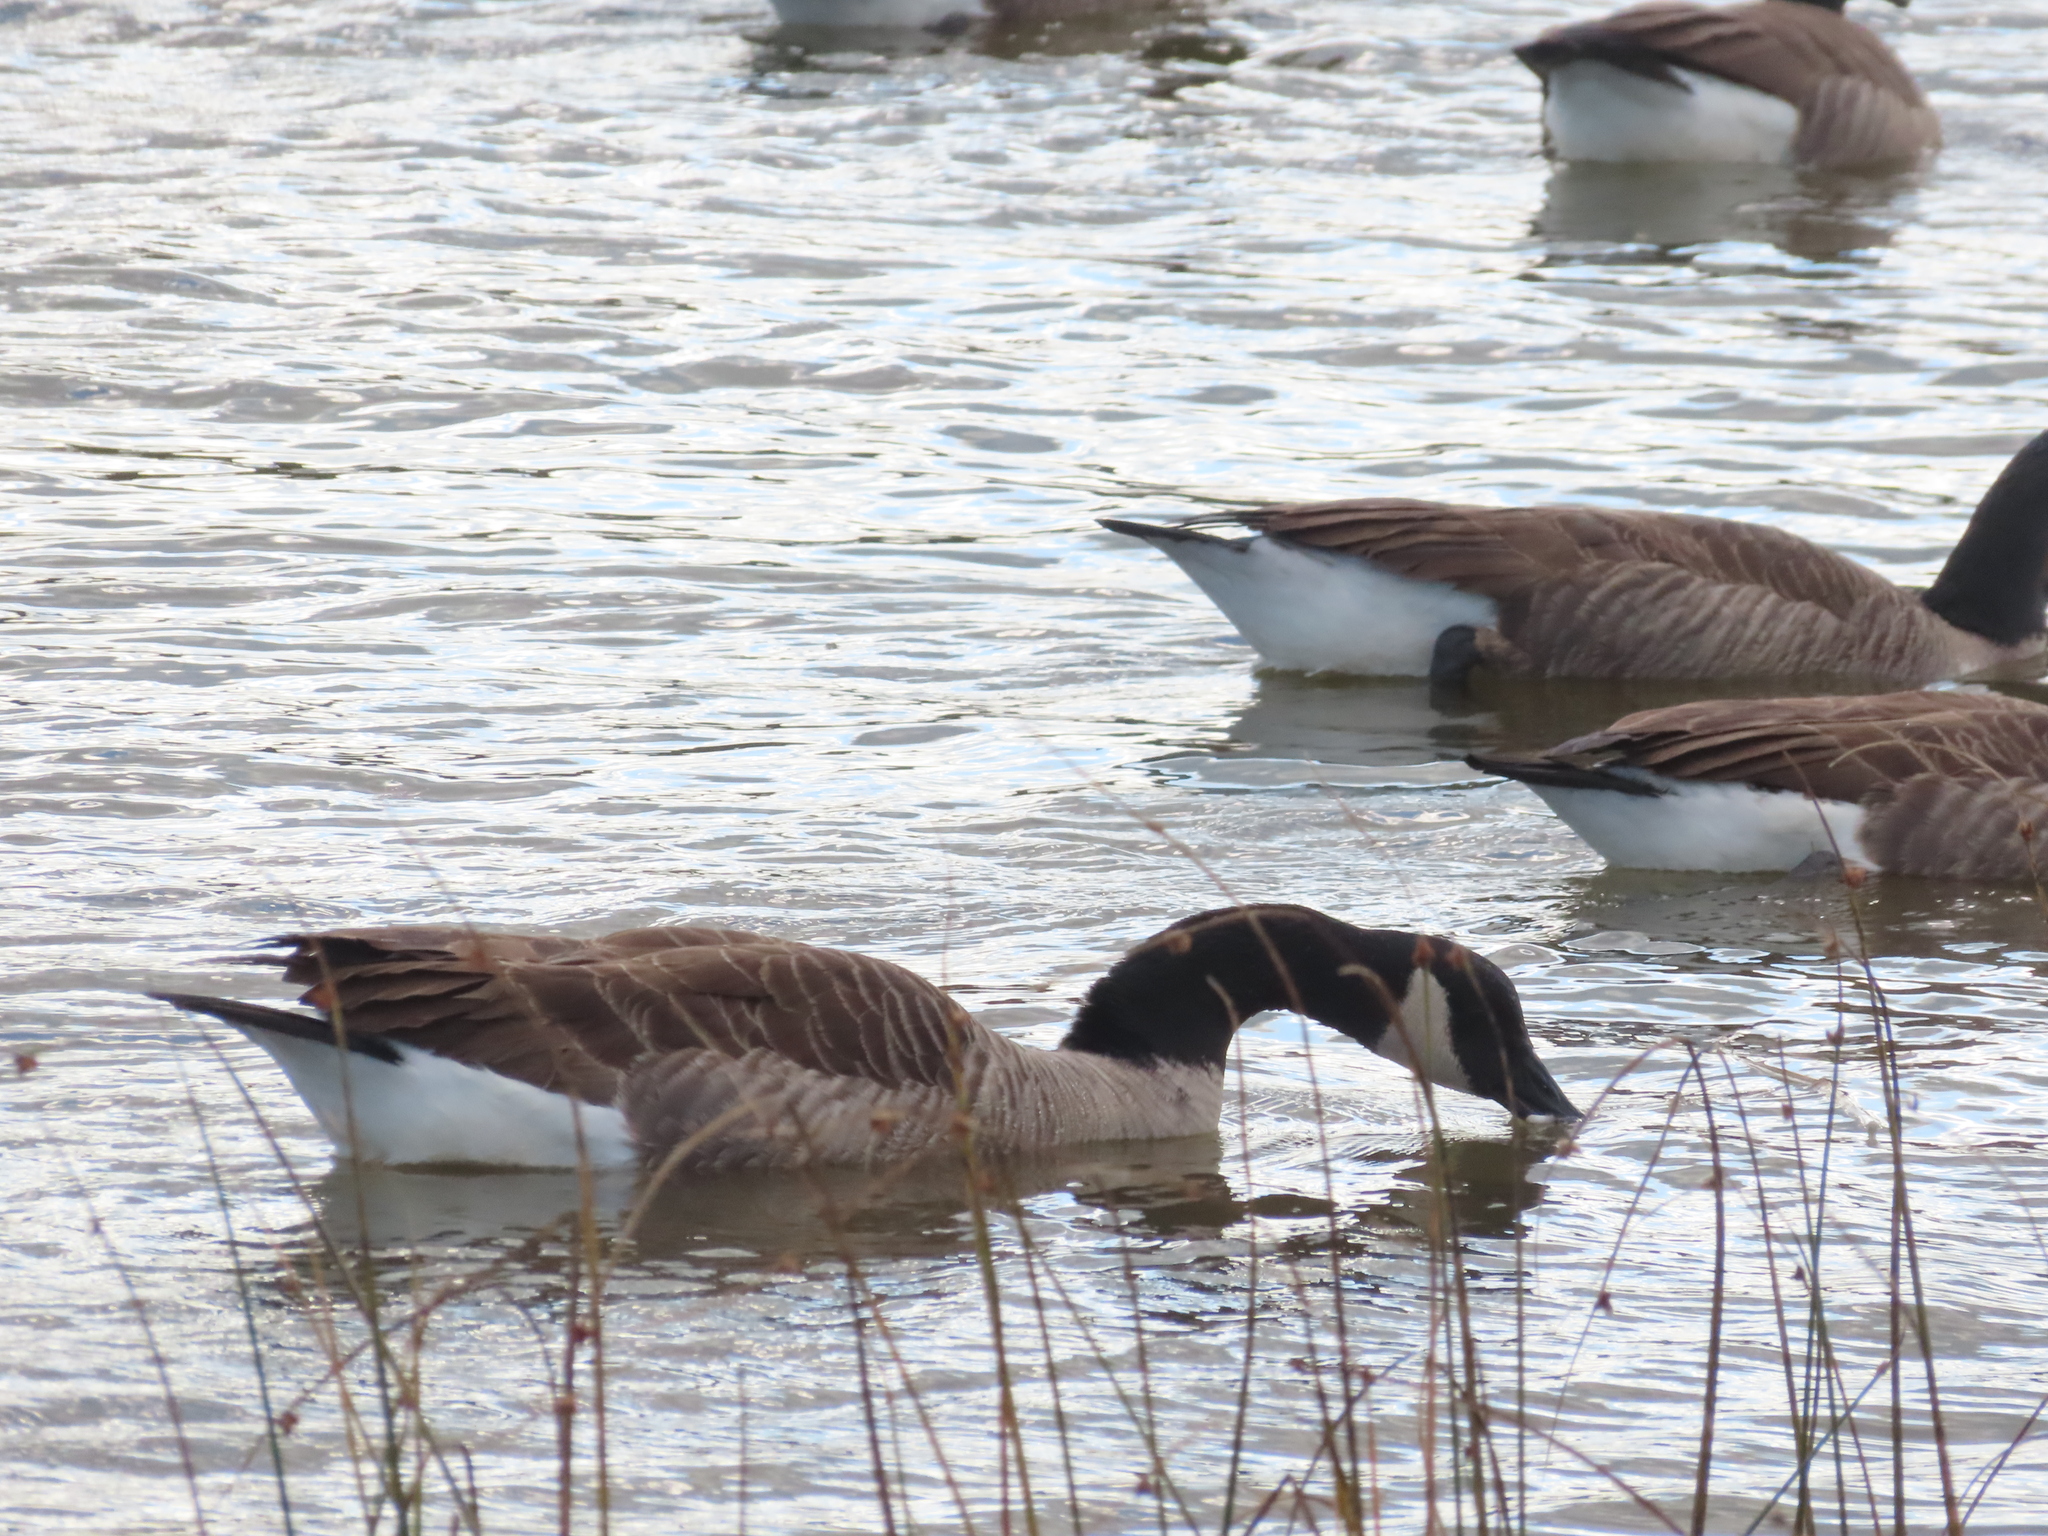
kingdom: Animalia
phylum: Chordata
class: Aves
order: Anseriformes
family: Anatidae
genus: Branta
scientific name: Branta canadensis
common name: Canada goose
